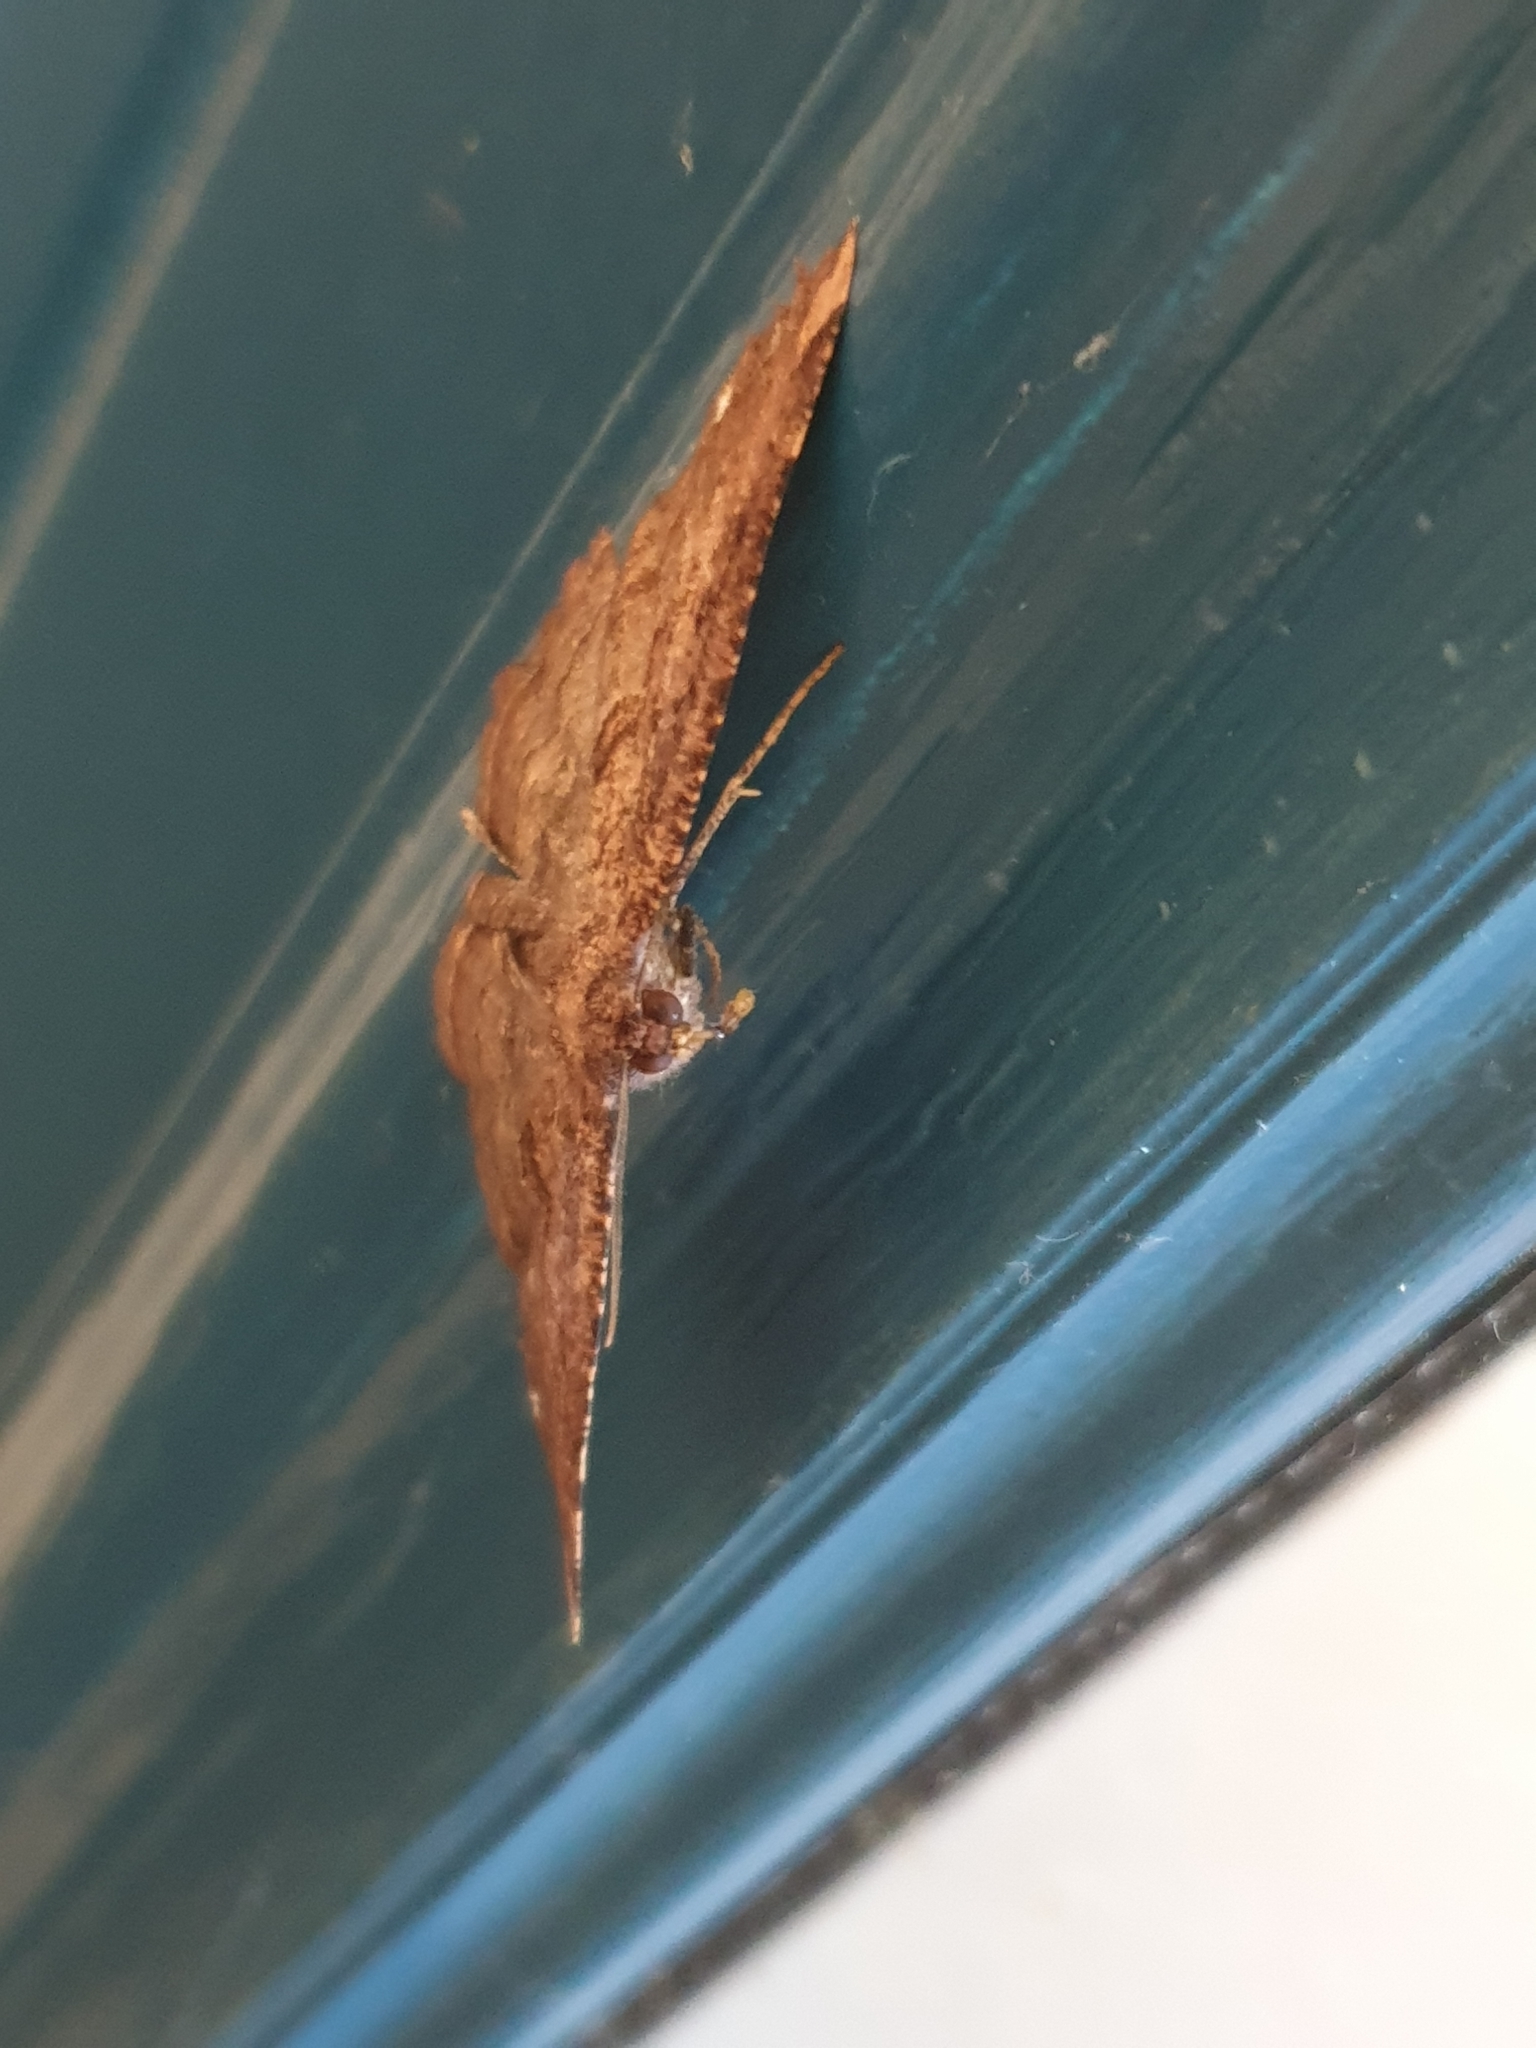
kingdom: Animalia
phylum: Arthropoda
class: Insecta
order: Lepidoptera
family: Geometridae
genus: Gellonia
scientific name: Gellonia dejectaria
